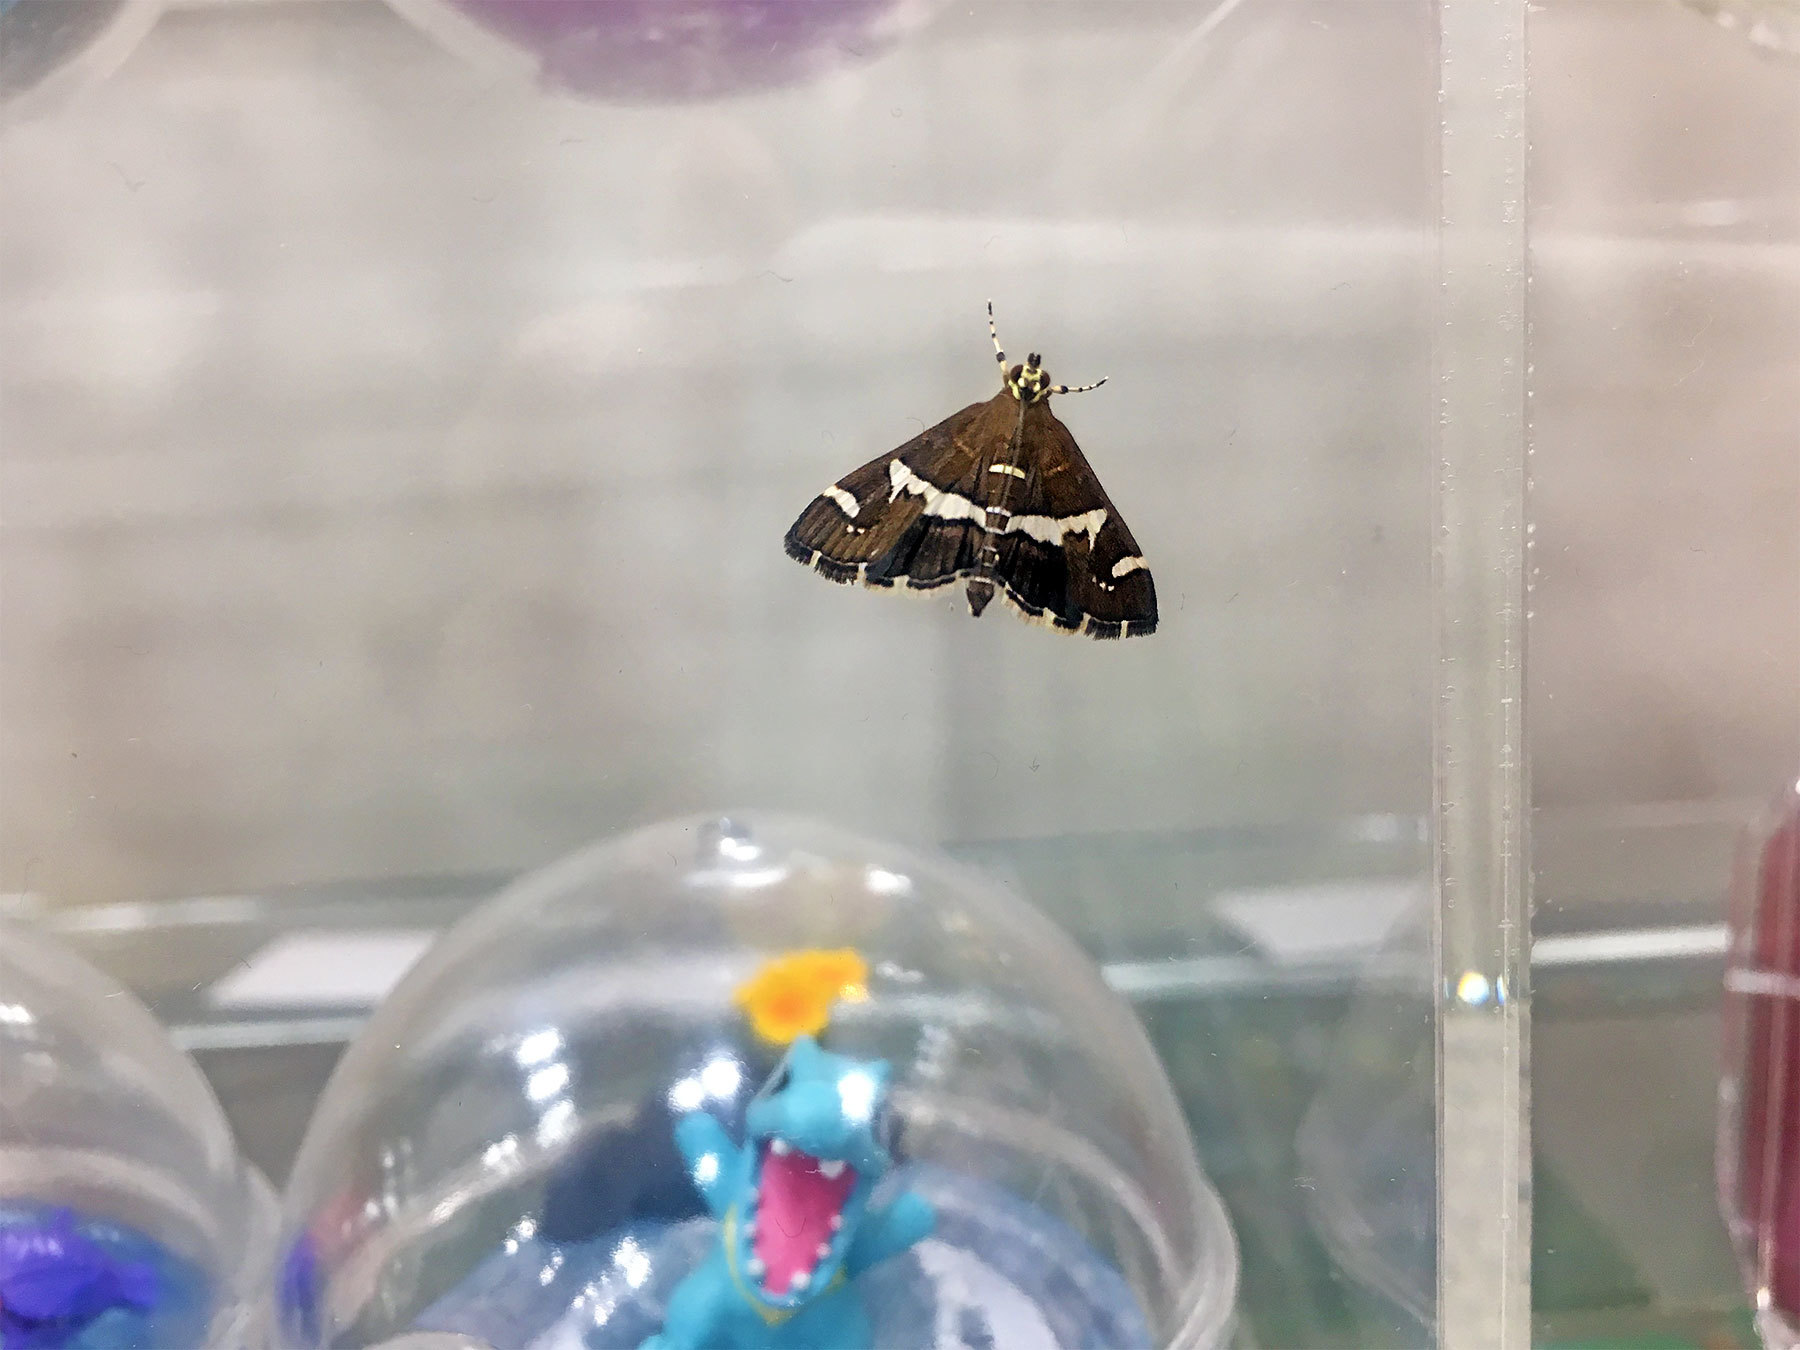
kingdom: Animalia
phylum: Arthropoda
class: Insecta
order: Lepidoptera
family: Crambidae
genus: Spoladea
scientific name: Spoladea recurvalis
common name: Beet webworm moth
